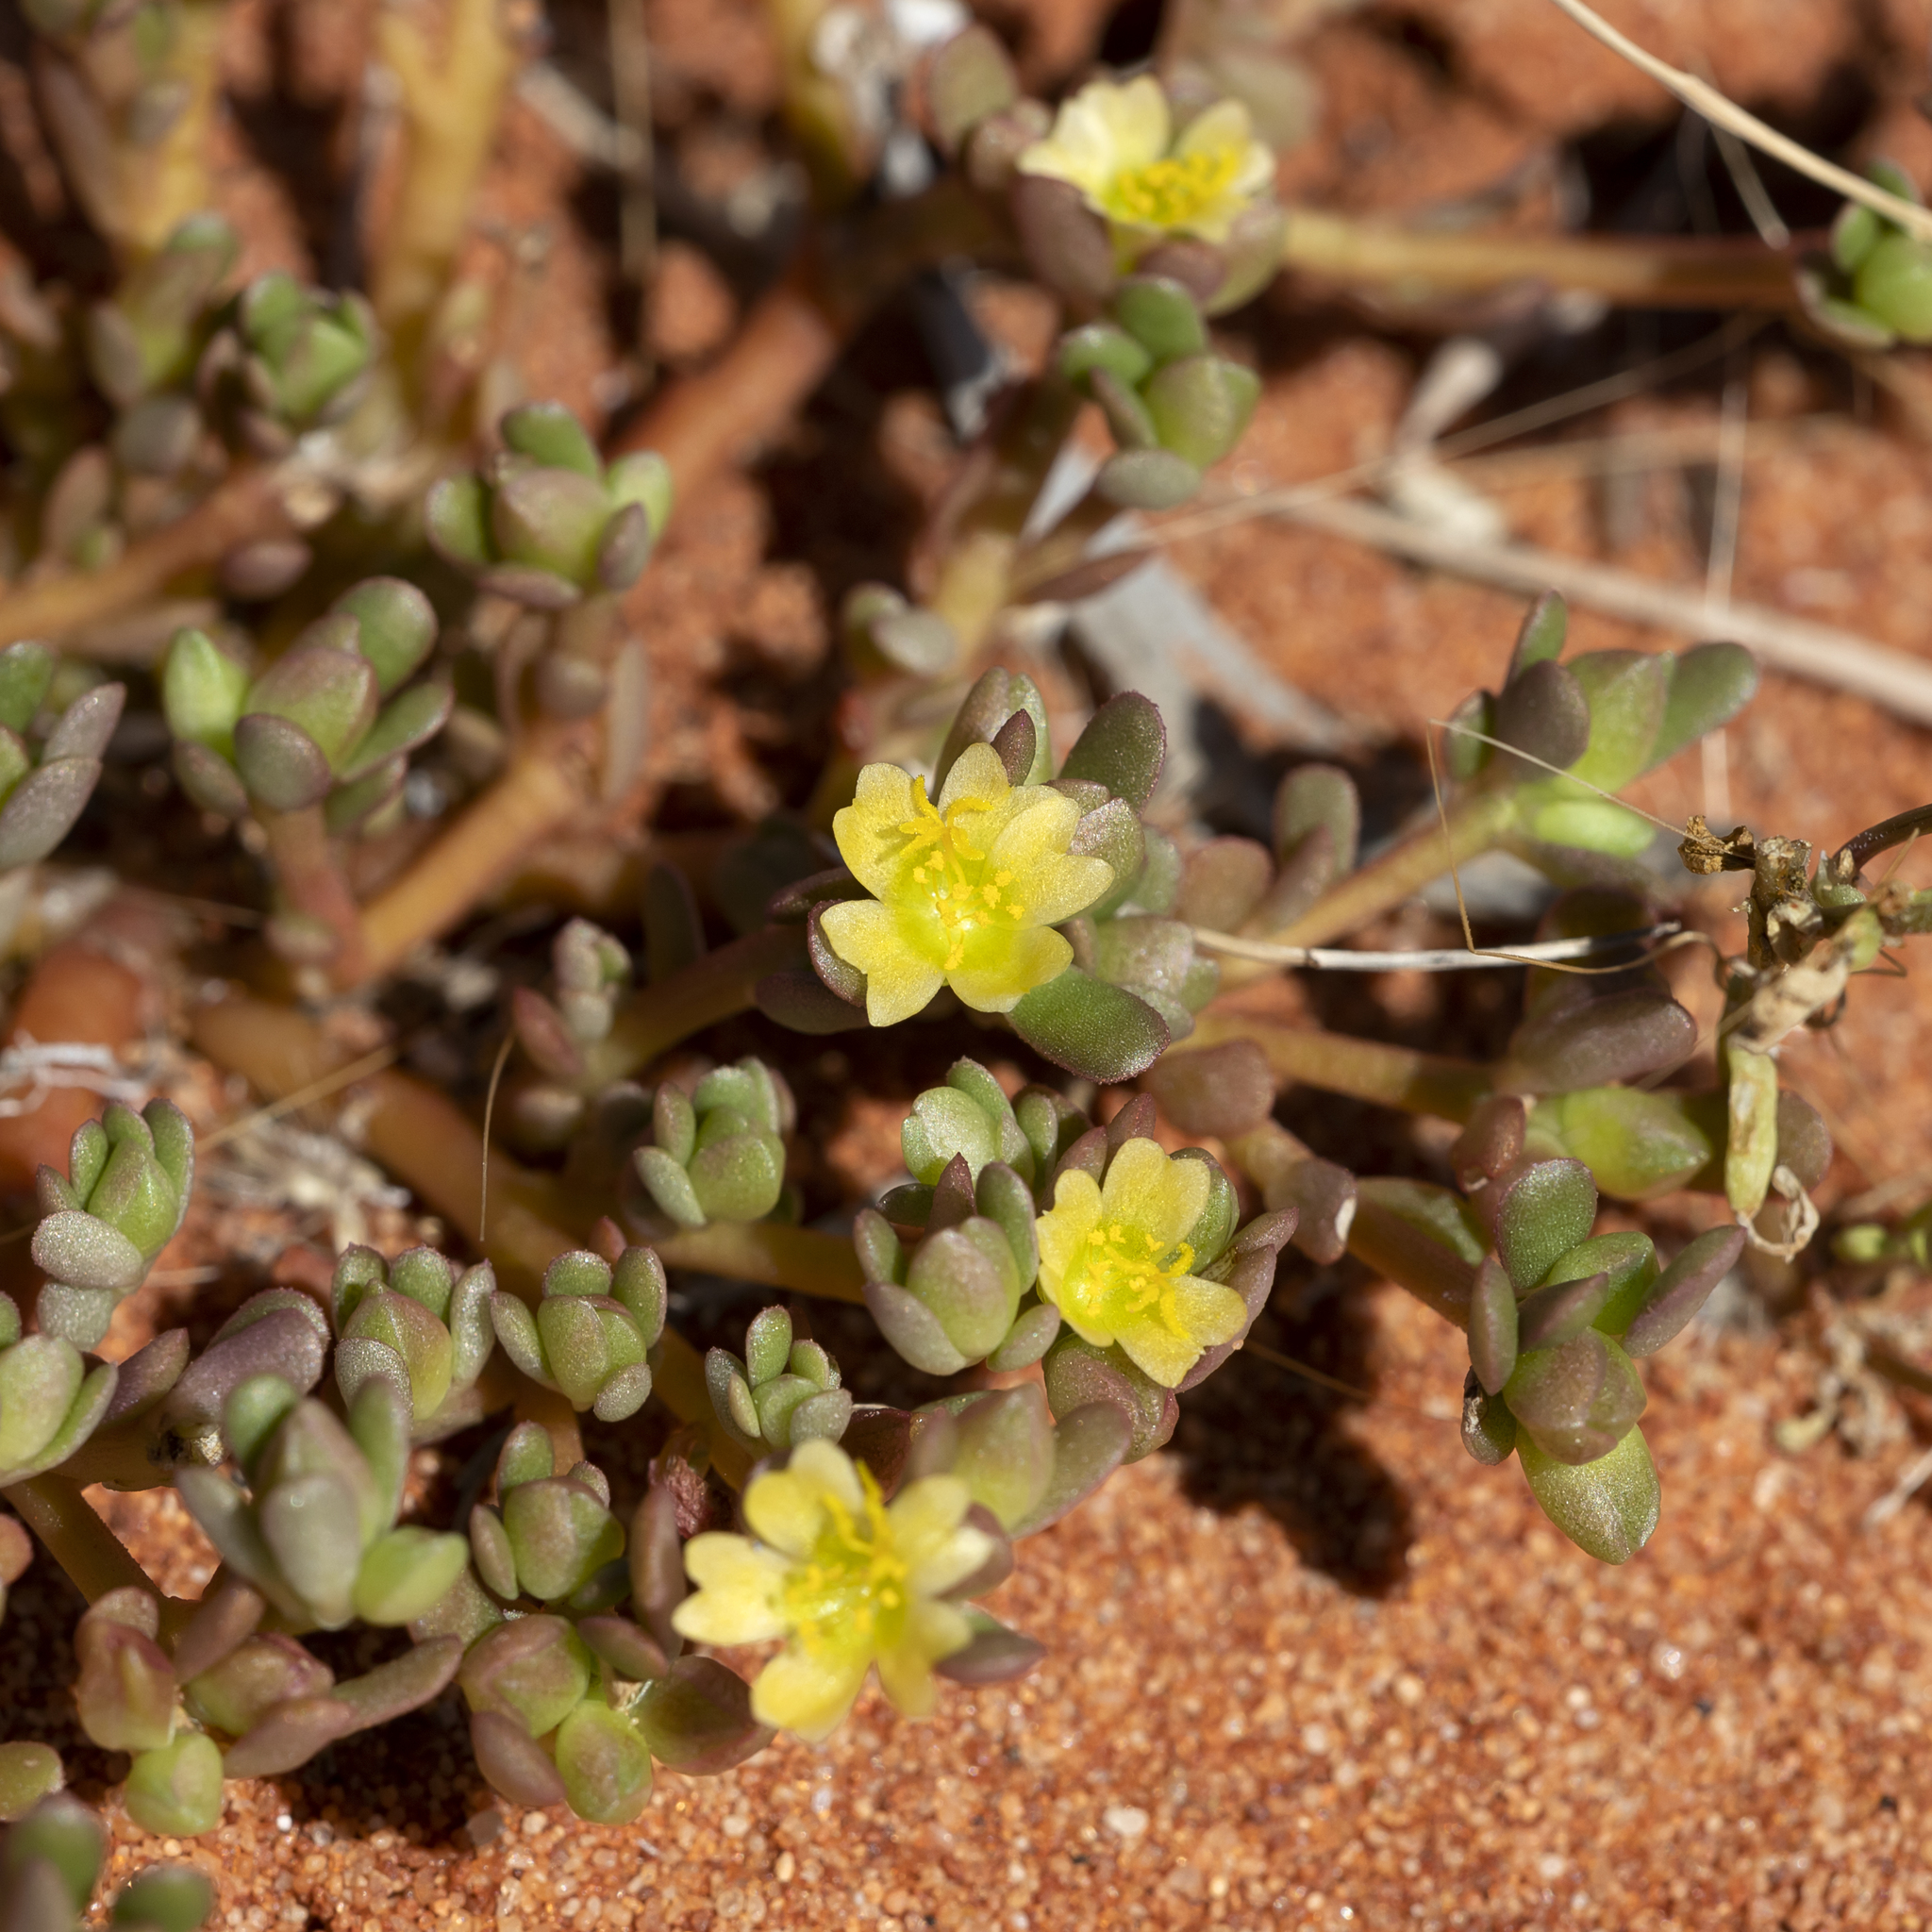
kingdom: Plantae
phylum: Tracheophyta
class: Magnoliopsida
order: Caryophyllales
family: Portulacaceae
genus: Portulaca
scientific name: Portulaca oleracea
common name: Common purslane
